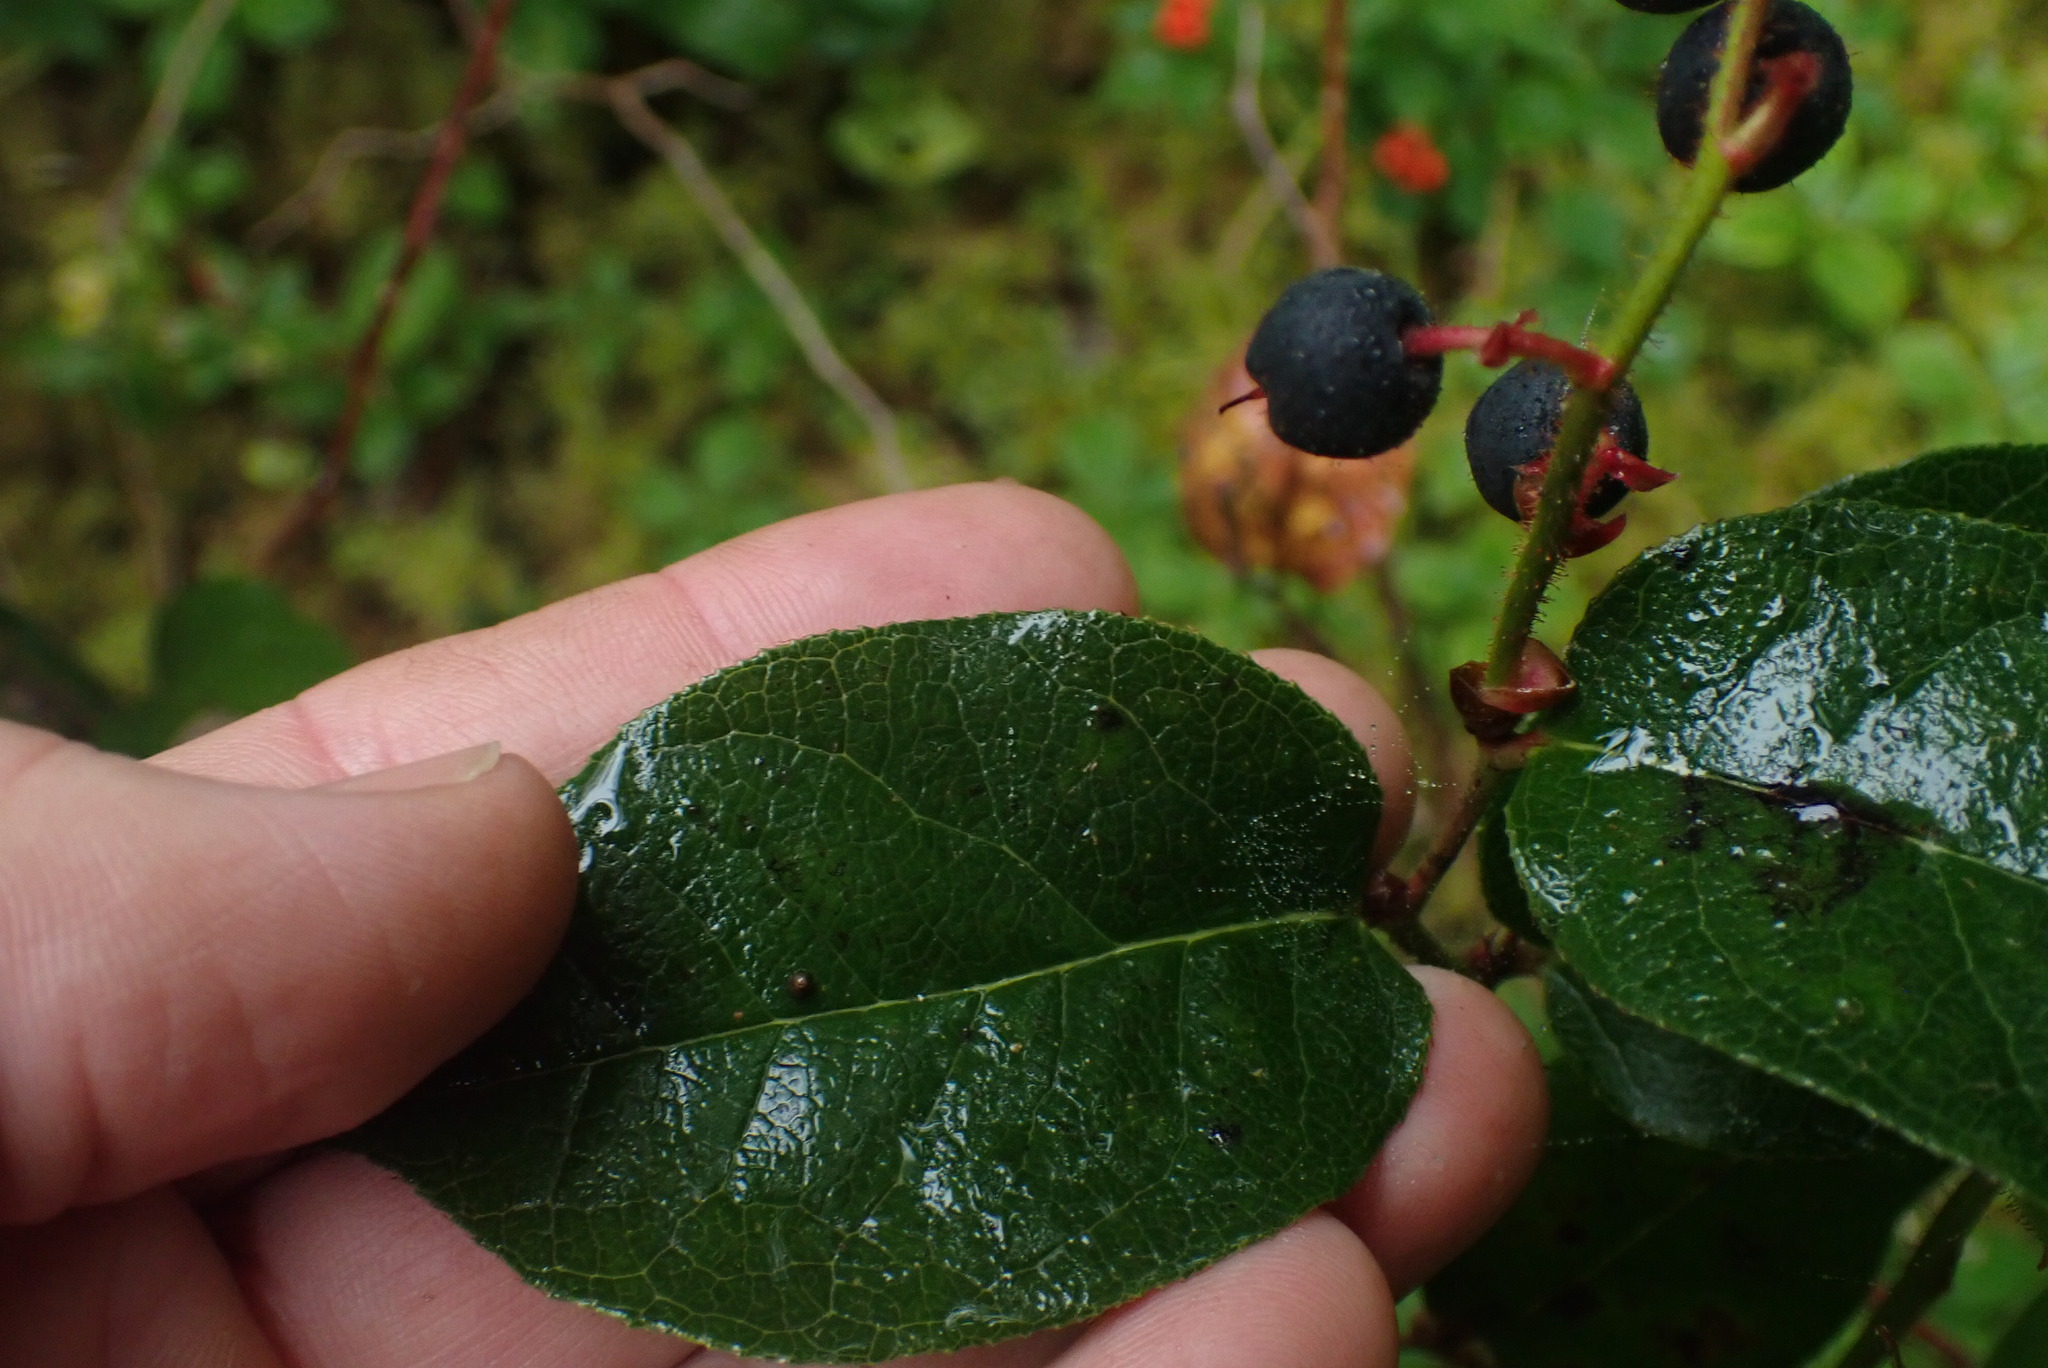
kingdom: Plantae
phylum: Tracheophyta
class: Magnoliopsida
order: Ericales
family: Ericaceae
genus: Gaultheria
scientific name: Gaultheria shallon
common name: Shallon
